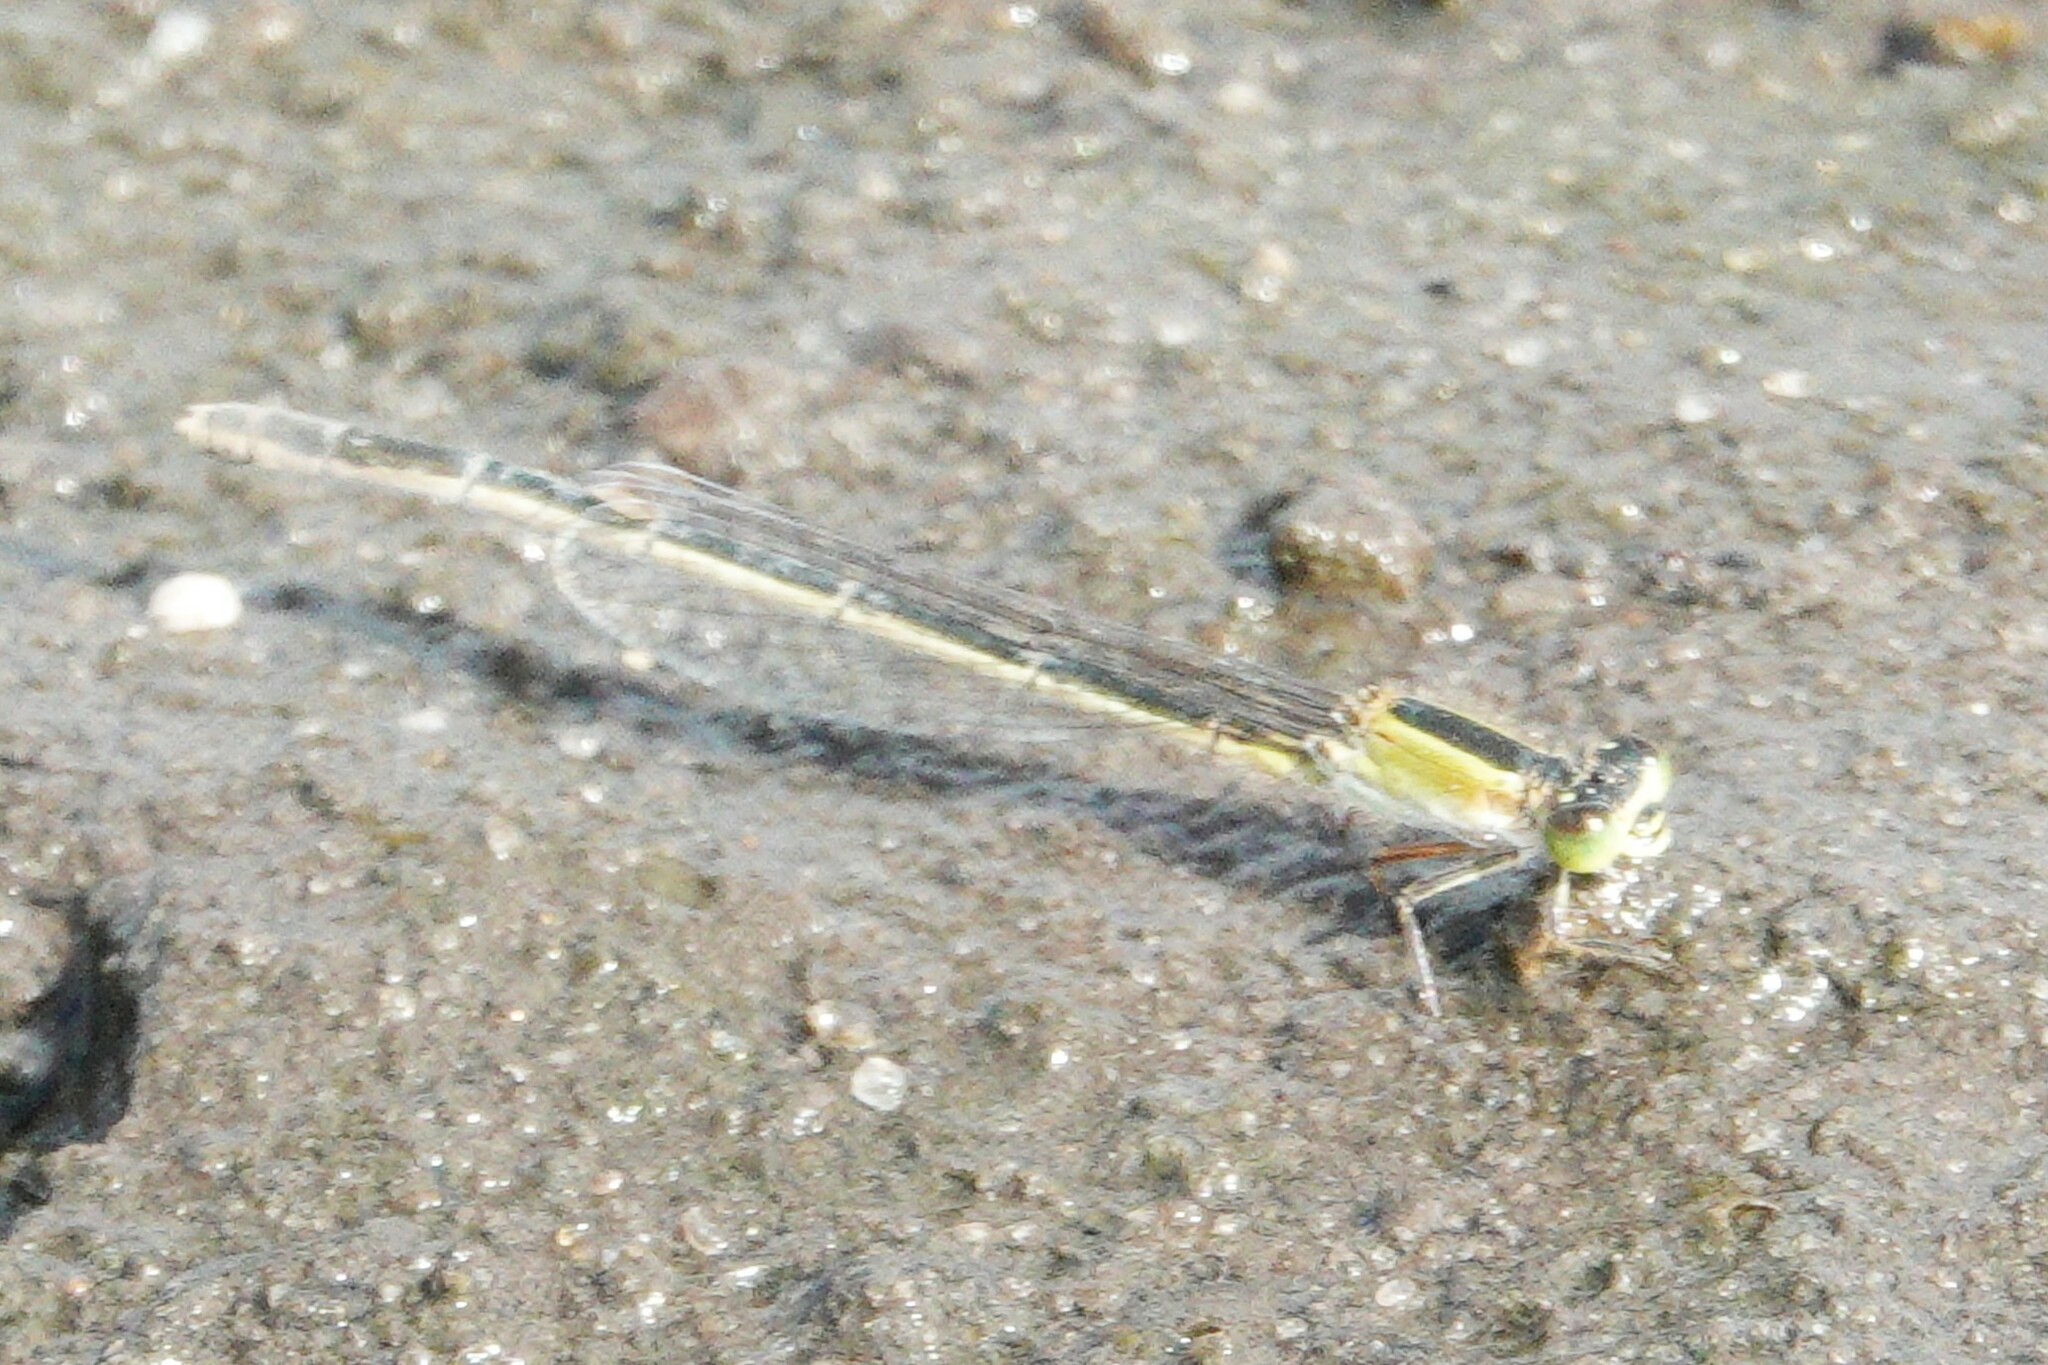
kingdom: Animalia
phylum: Arthropoda
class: Insecta
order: Odonata
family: Coenagrionidae
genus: Ischnura
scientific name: Ischnura ramburii
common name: Rambur's forktail
